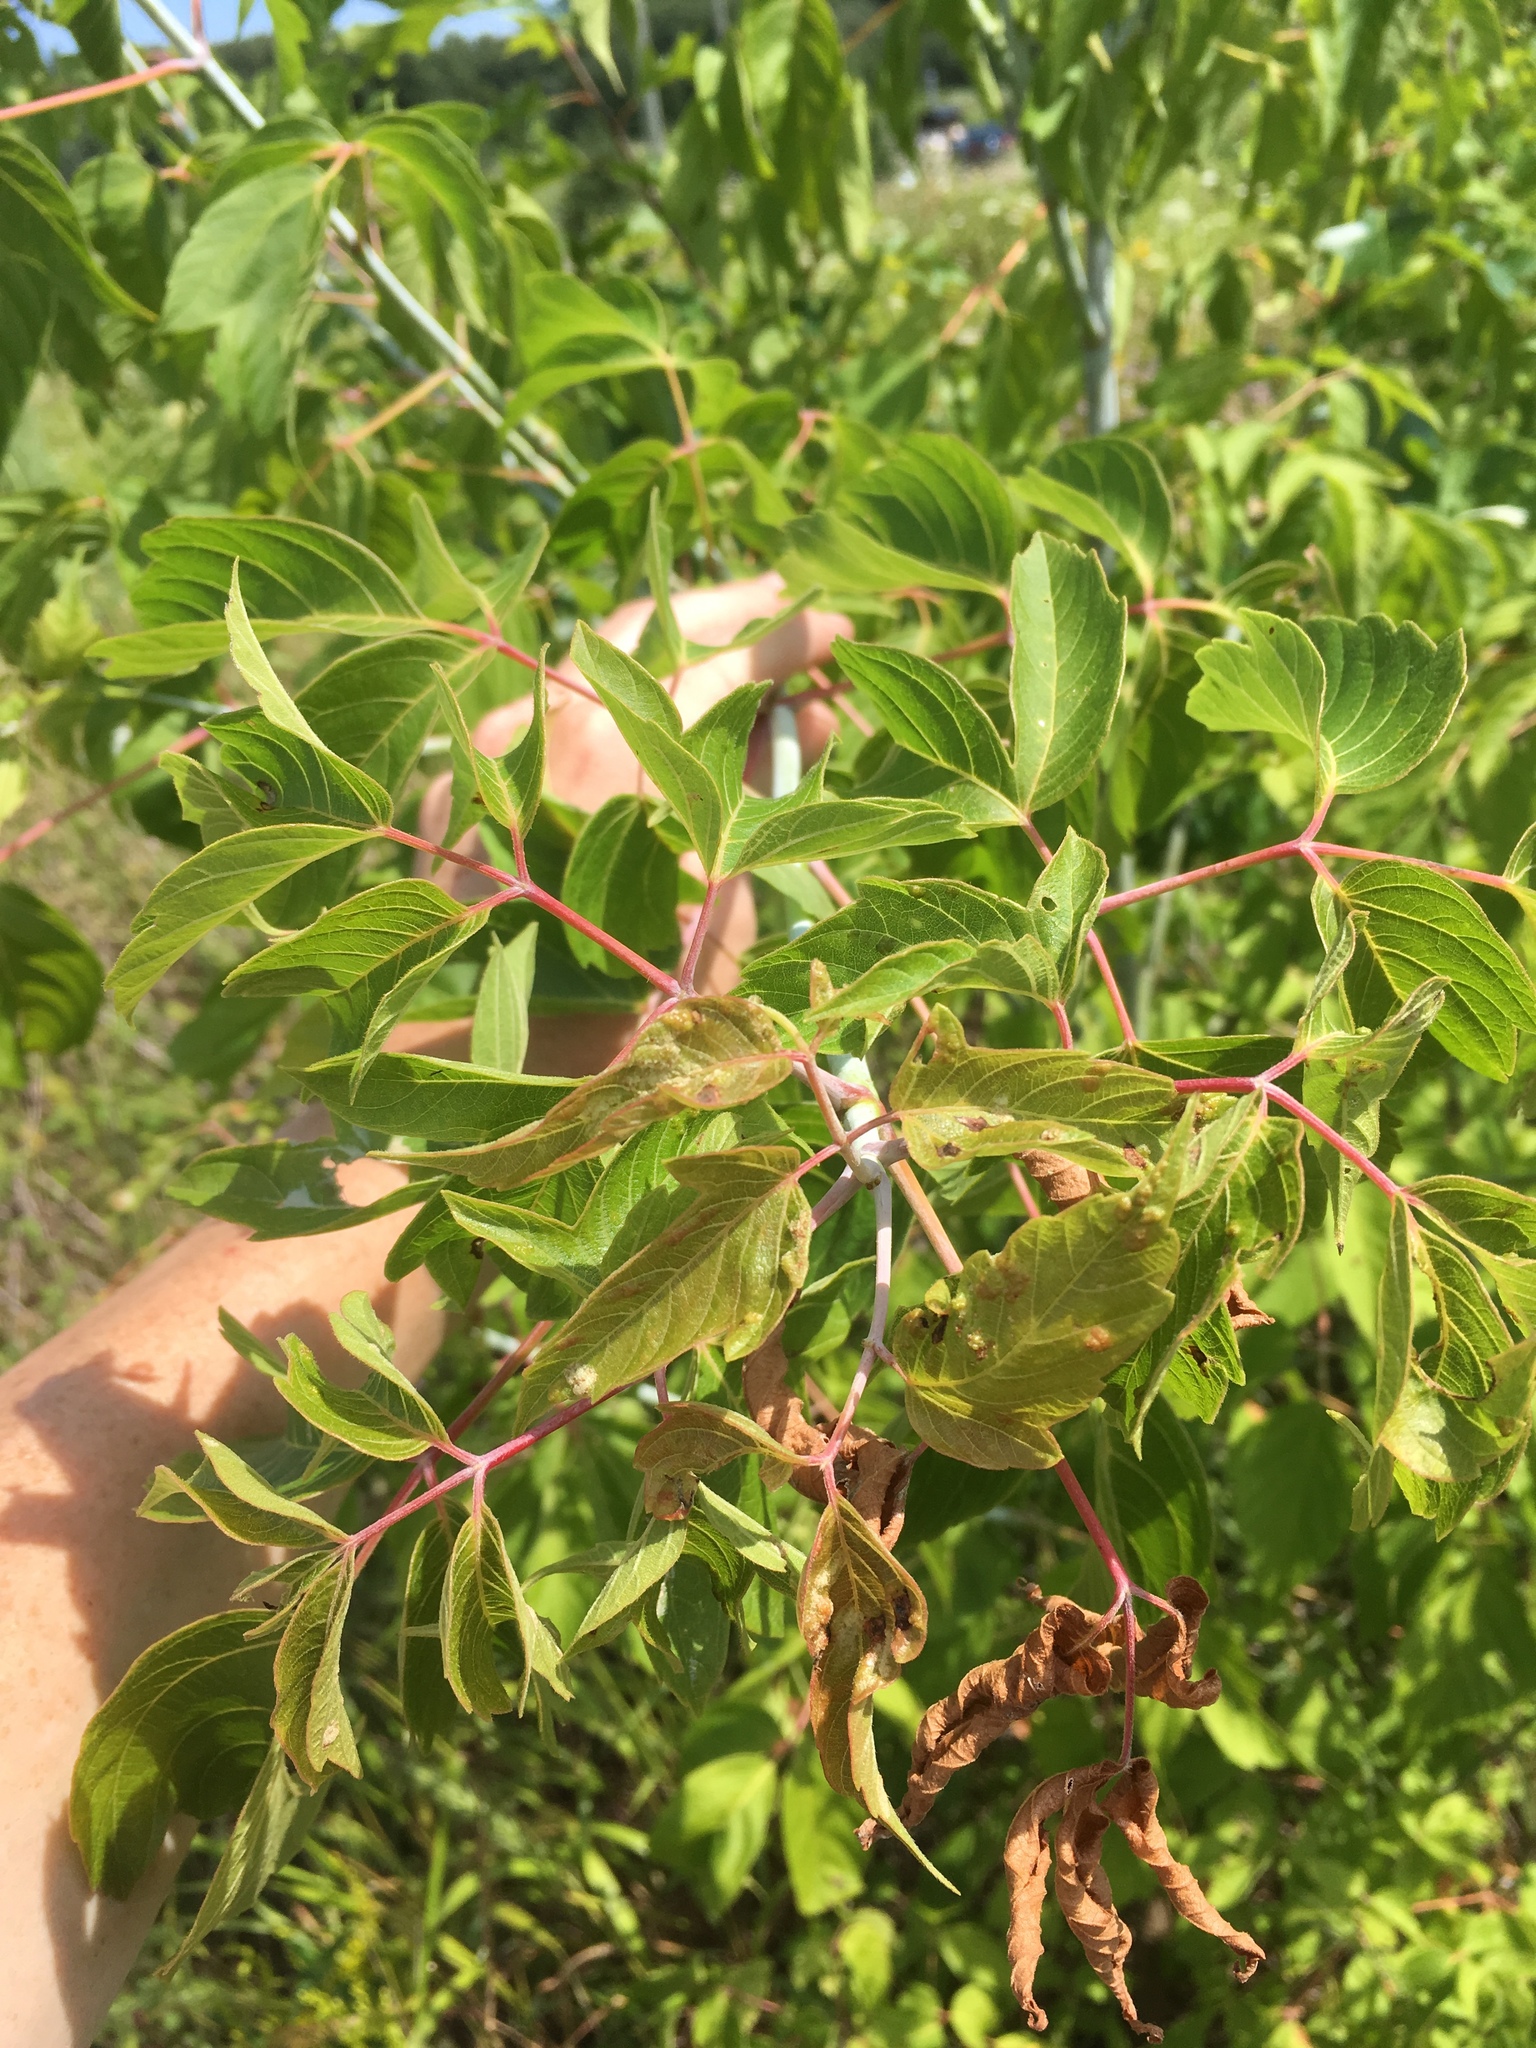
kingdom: Plantae
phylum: Tracheophyta
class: Magnoliopsida
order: Sapindales
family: Sapindaceae
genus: Acer
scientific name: Acer negundo
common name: Ashleaf maple
